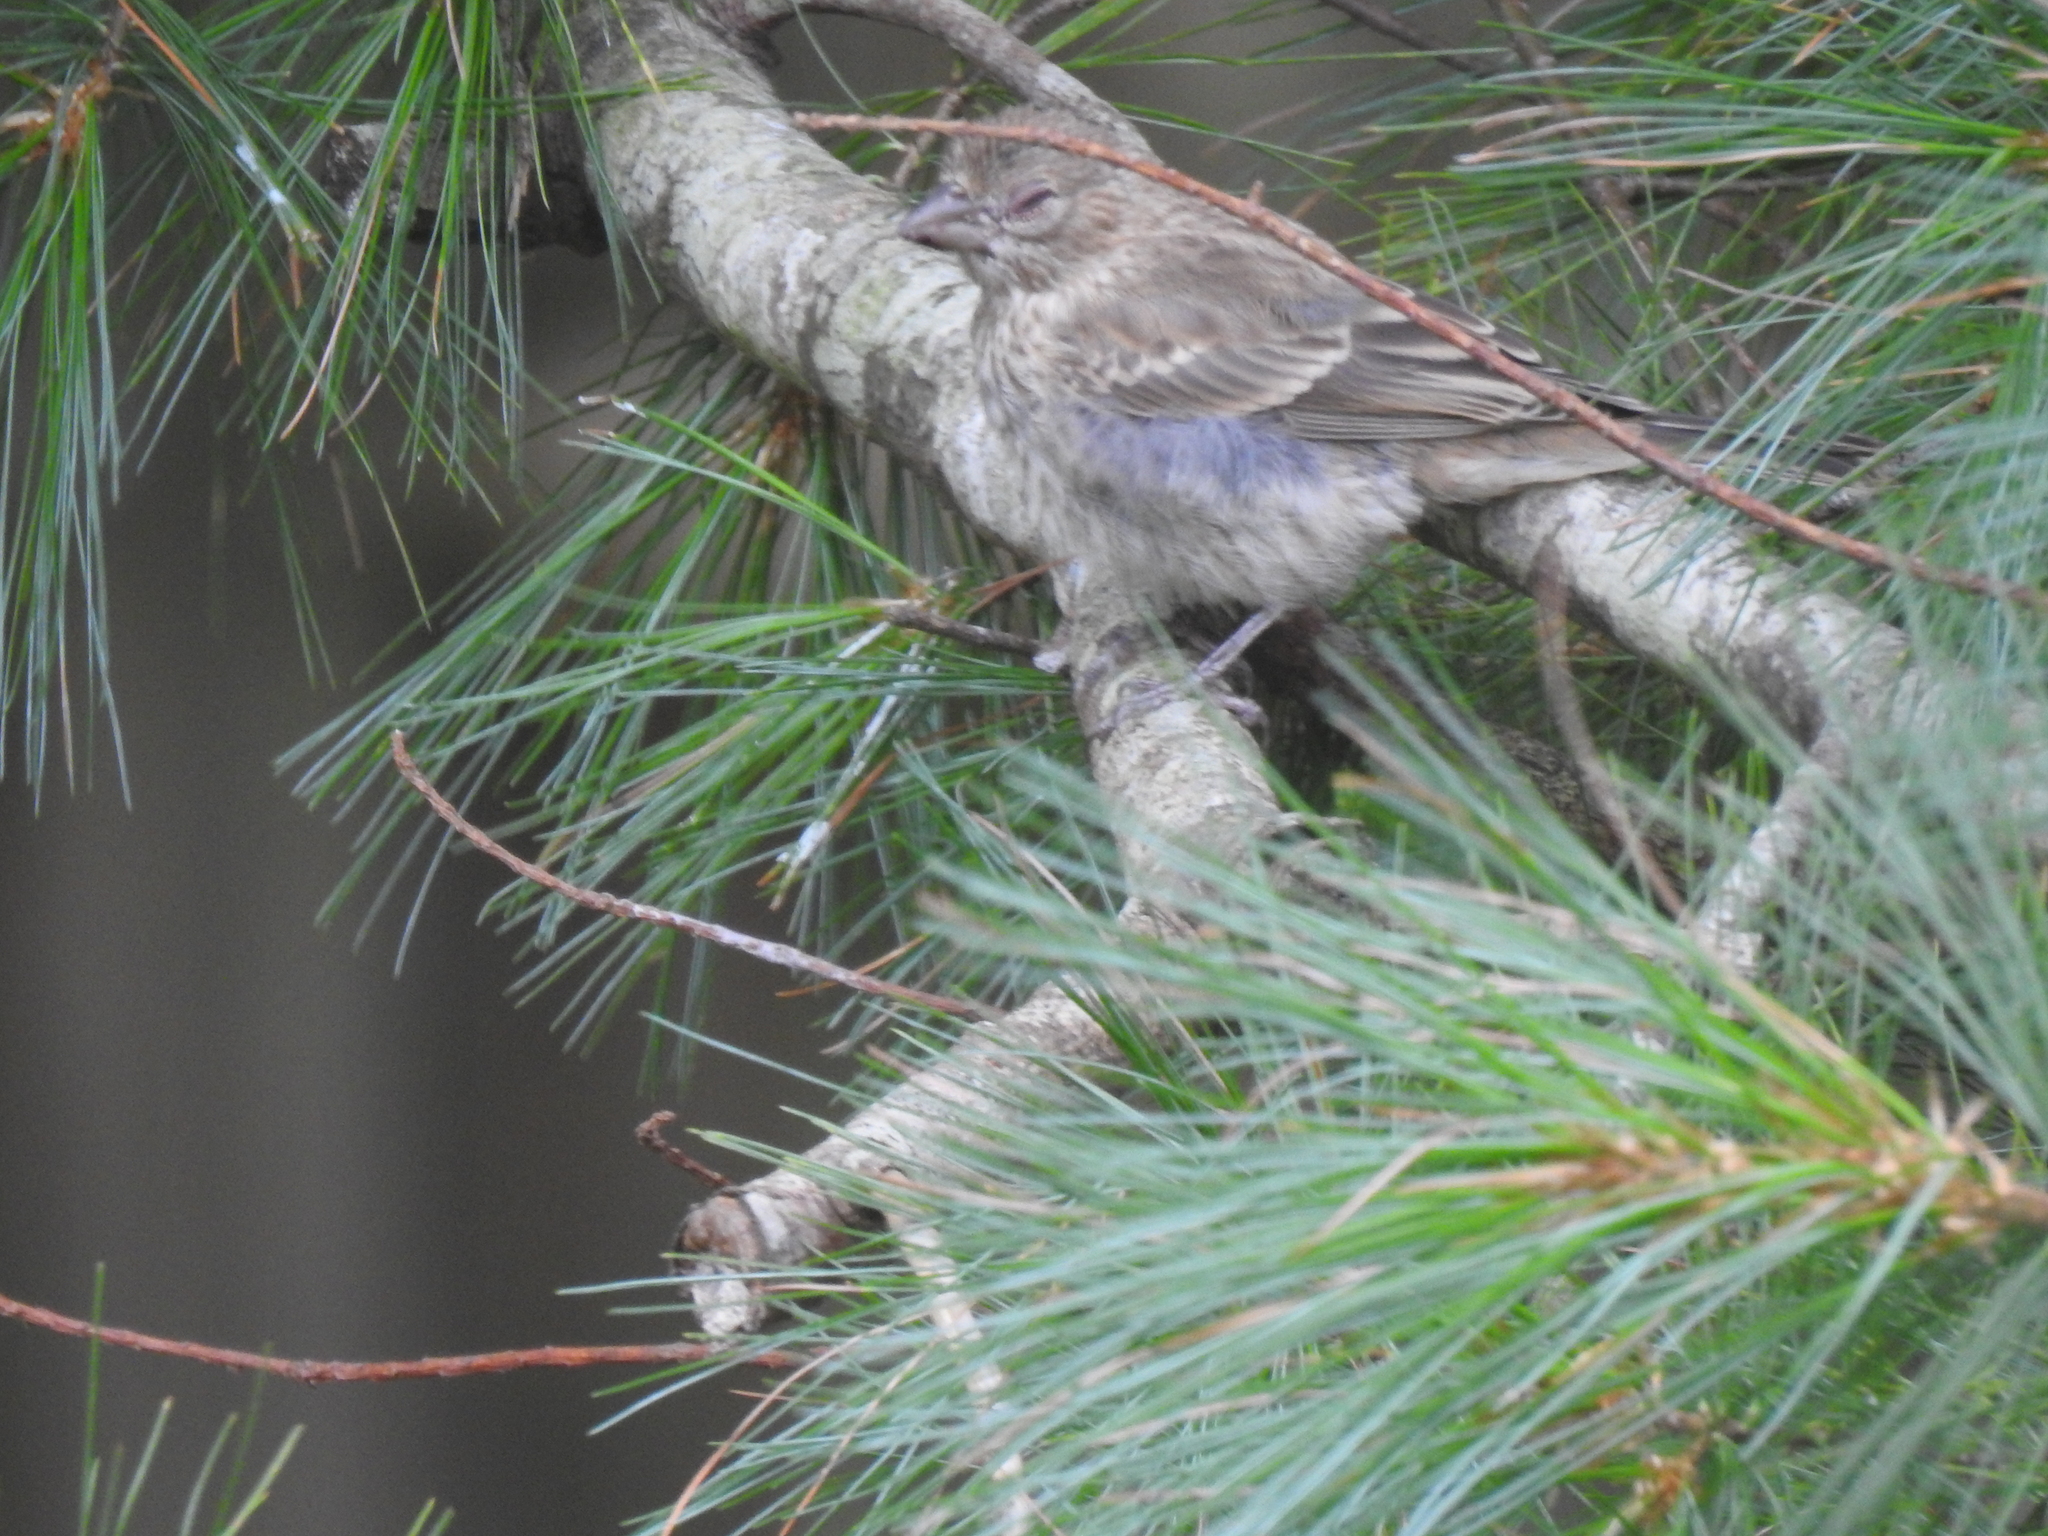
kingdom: Animalia
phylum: Chordata
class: Aves
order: Passeriformes
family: Fringillidae
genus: Haemorhous
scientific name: Haemorhous mexicanus
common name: House finch
